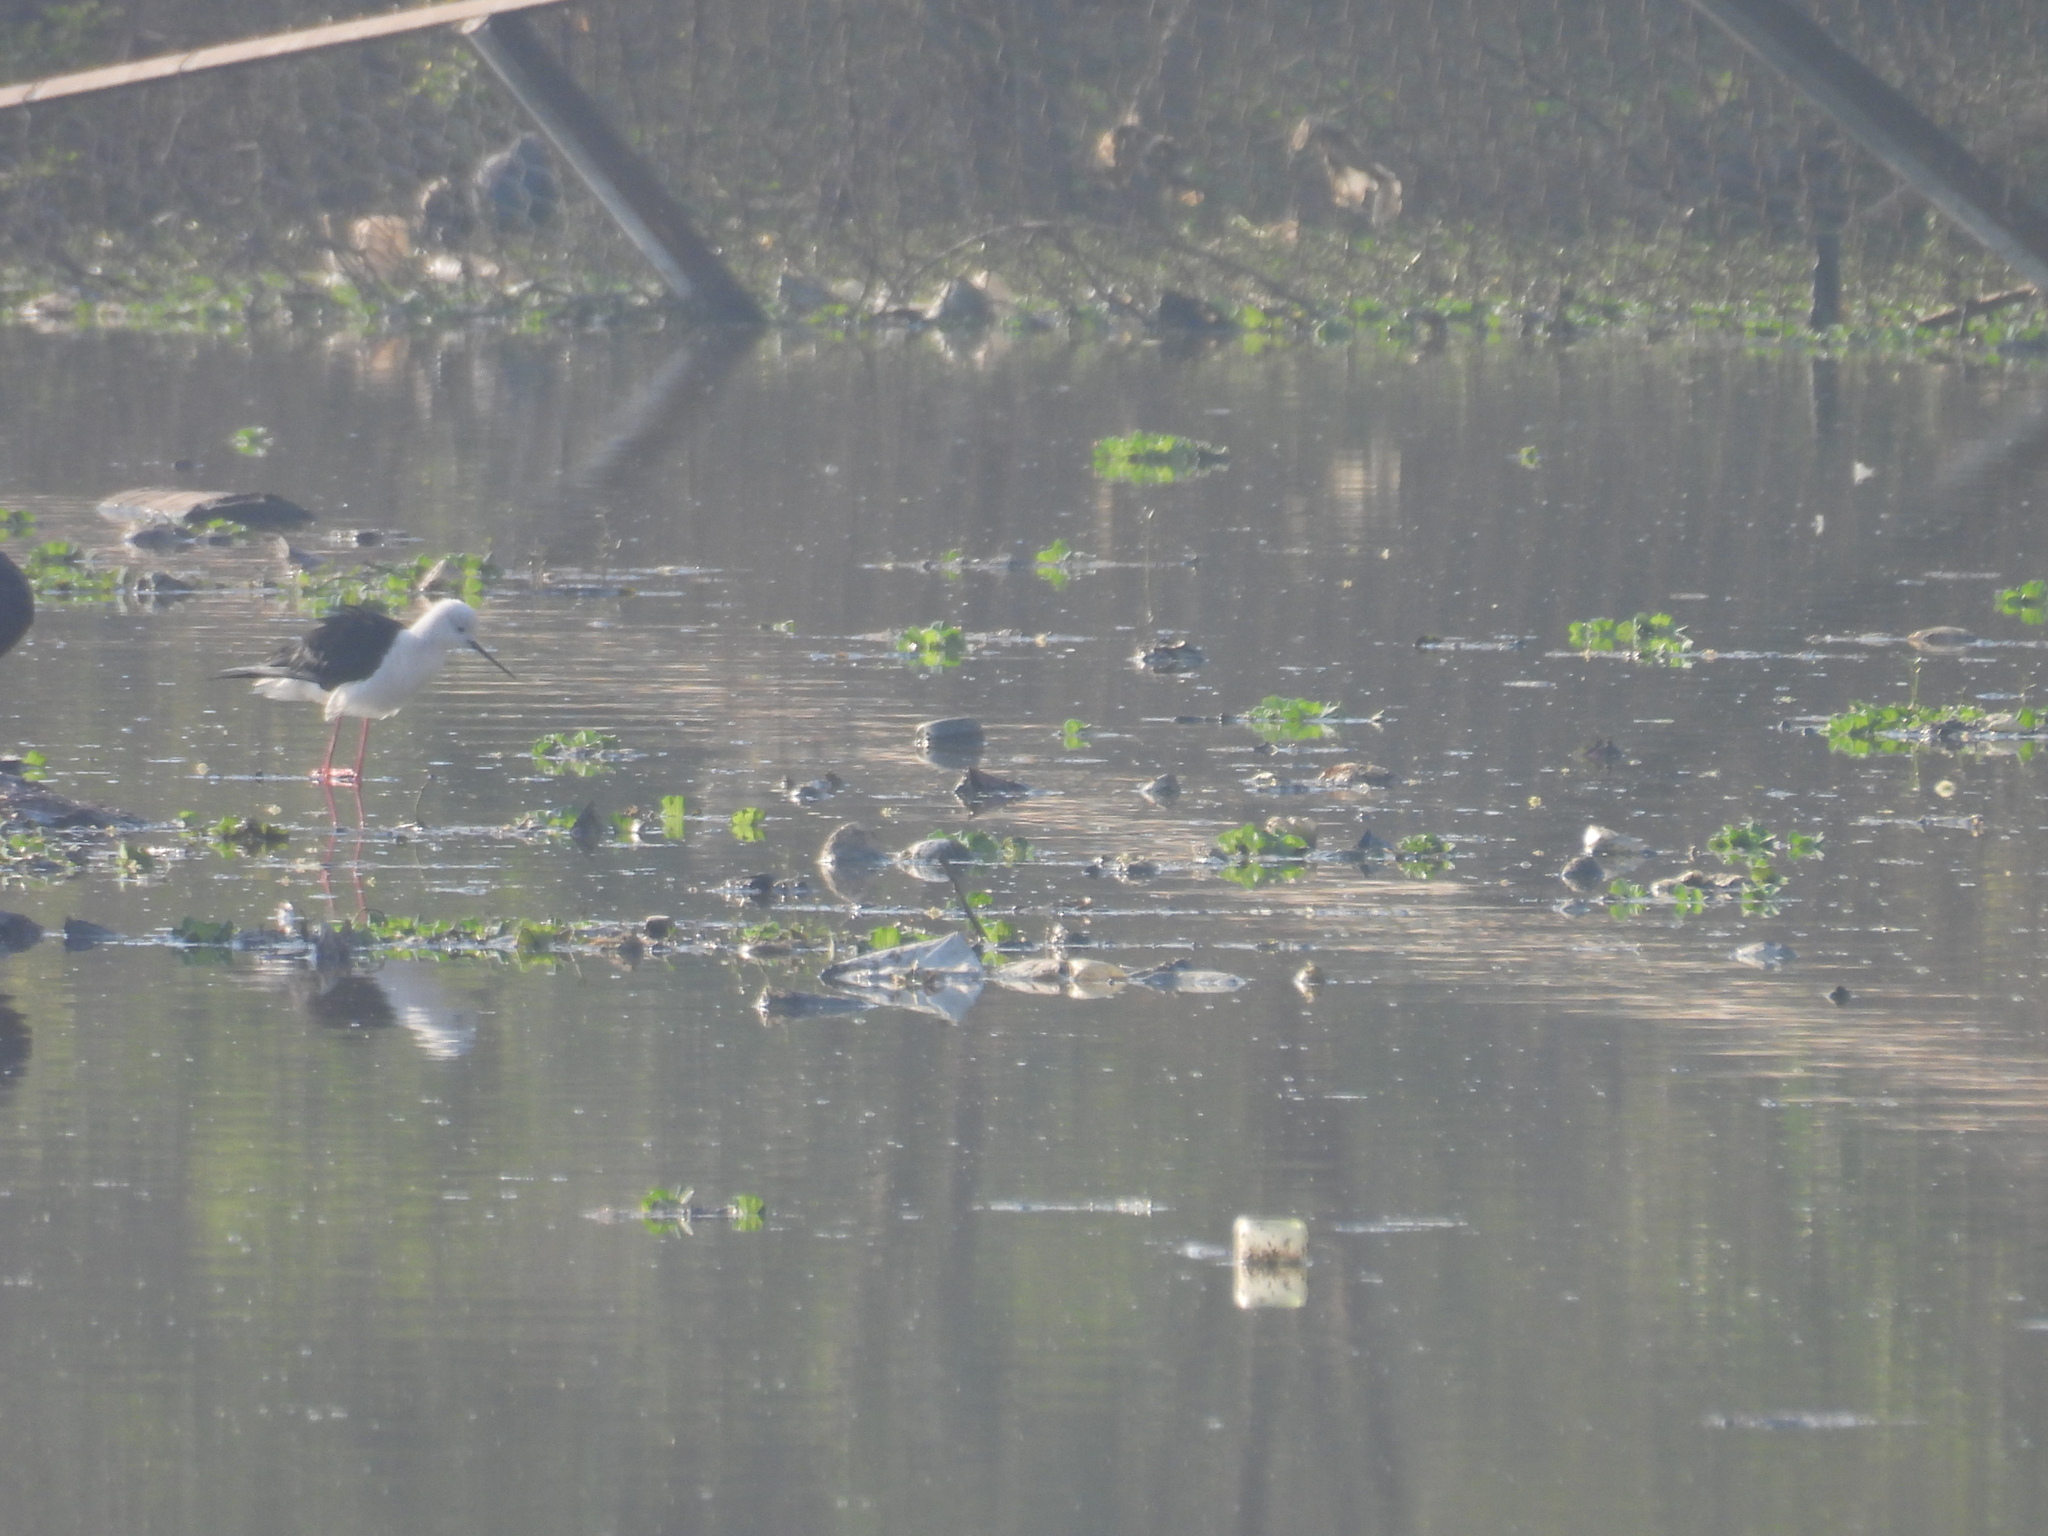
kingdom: Animalia
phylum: Chordata
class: Aves
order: Charadriiformes
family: Recurvirostridae
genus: Himantopus
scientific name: Himantopus himantopus
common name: Black-winged stilt
